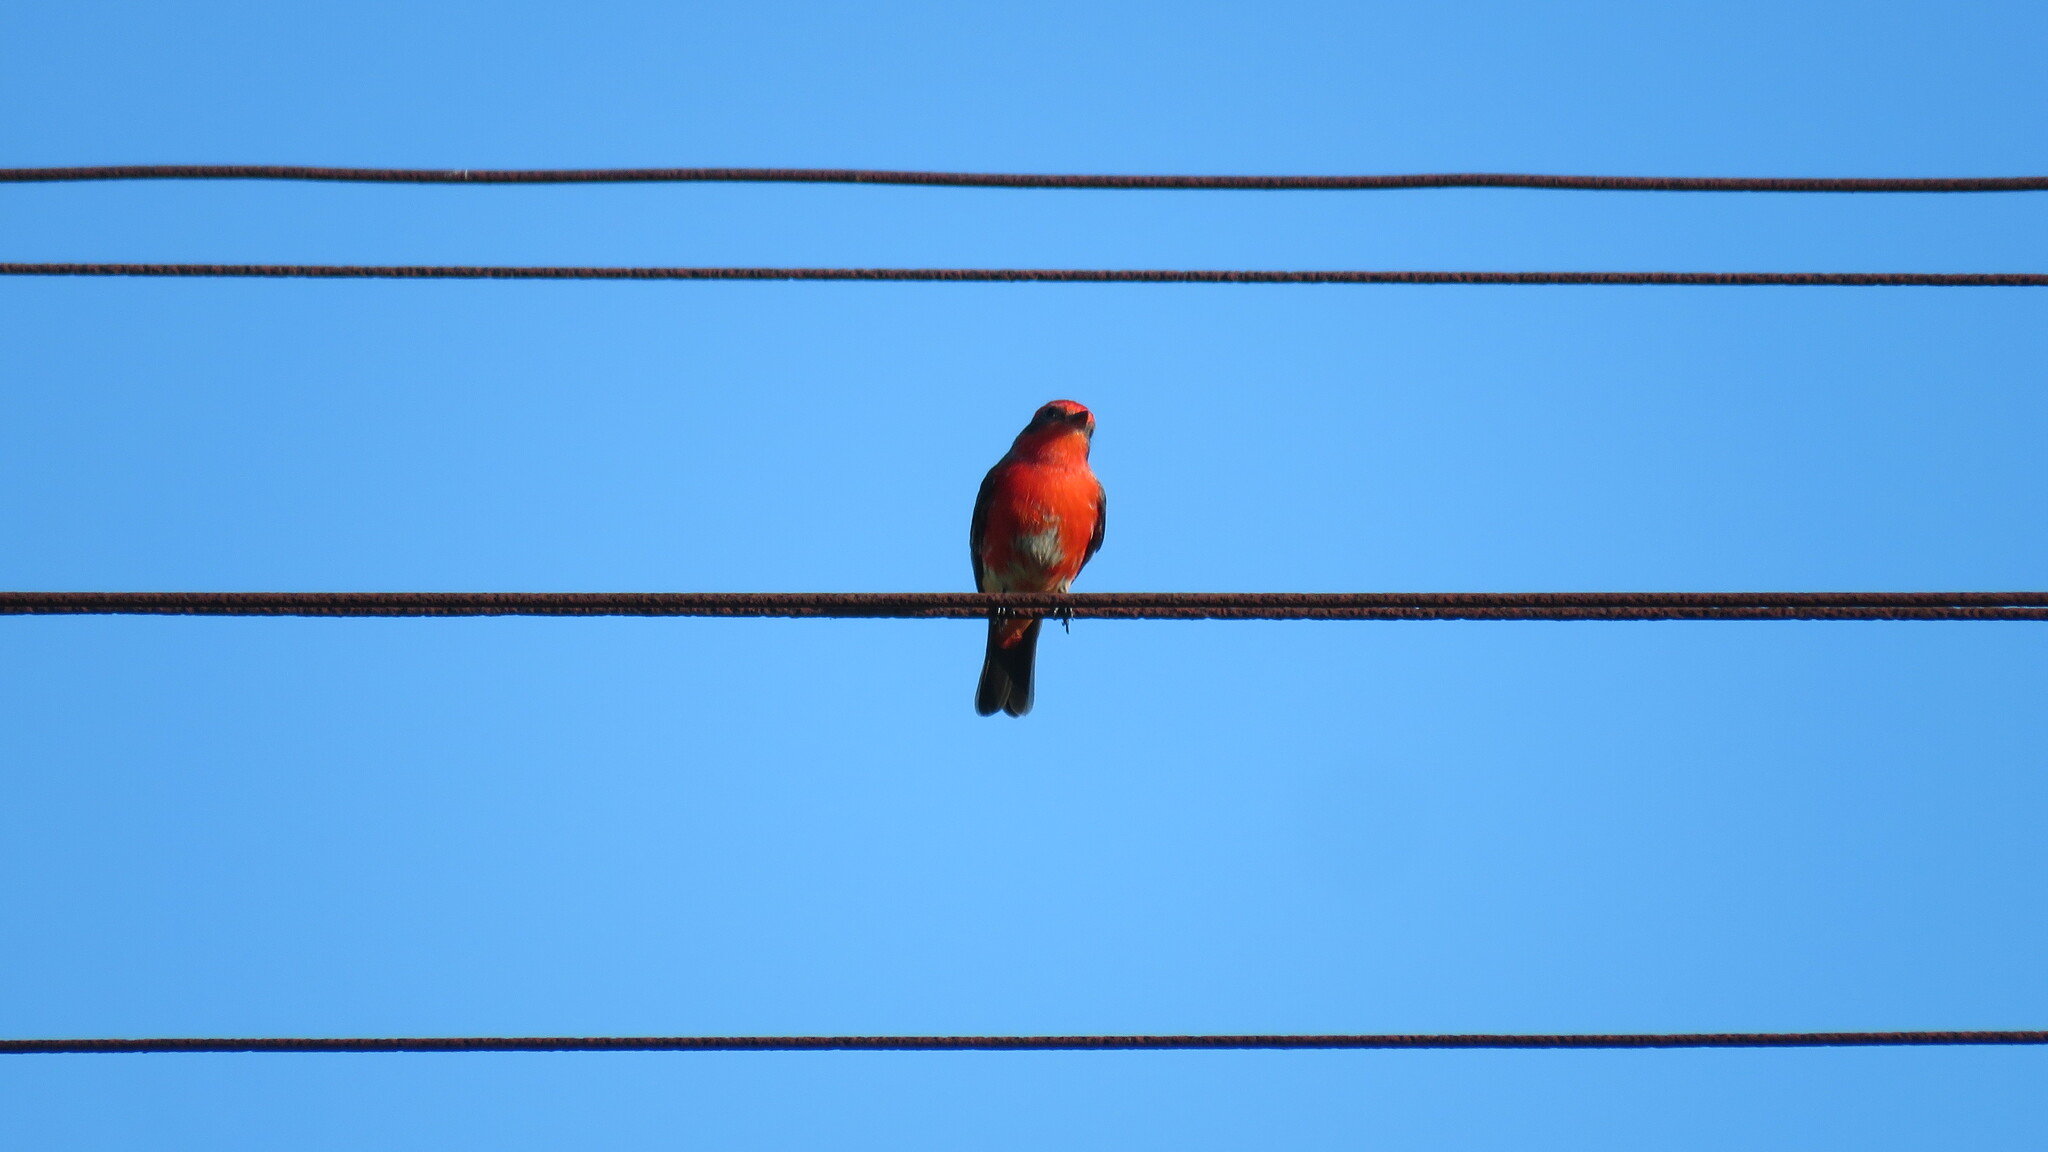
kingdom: Animalia
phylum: Chordata
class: Aves
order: Passeriformes
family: Tyrannidae
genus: Pyrocephalus
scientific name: Pyrocephalus rubinus
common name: Vermilion flycatcher
